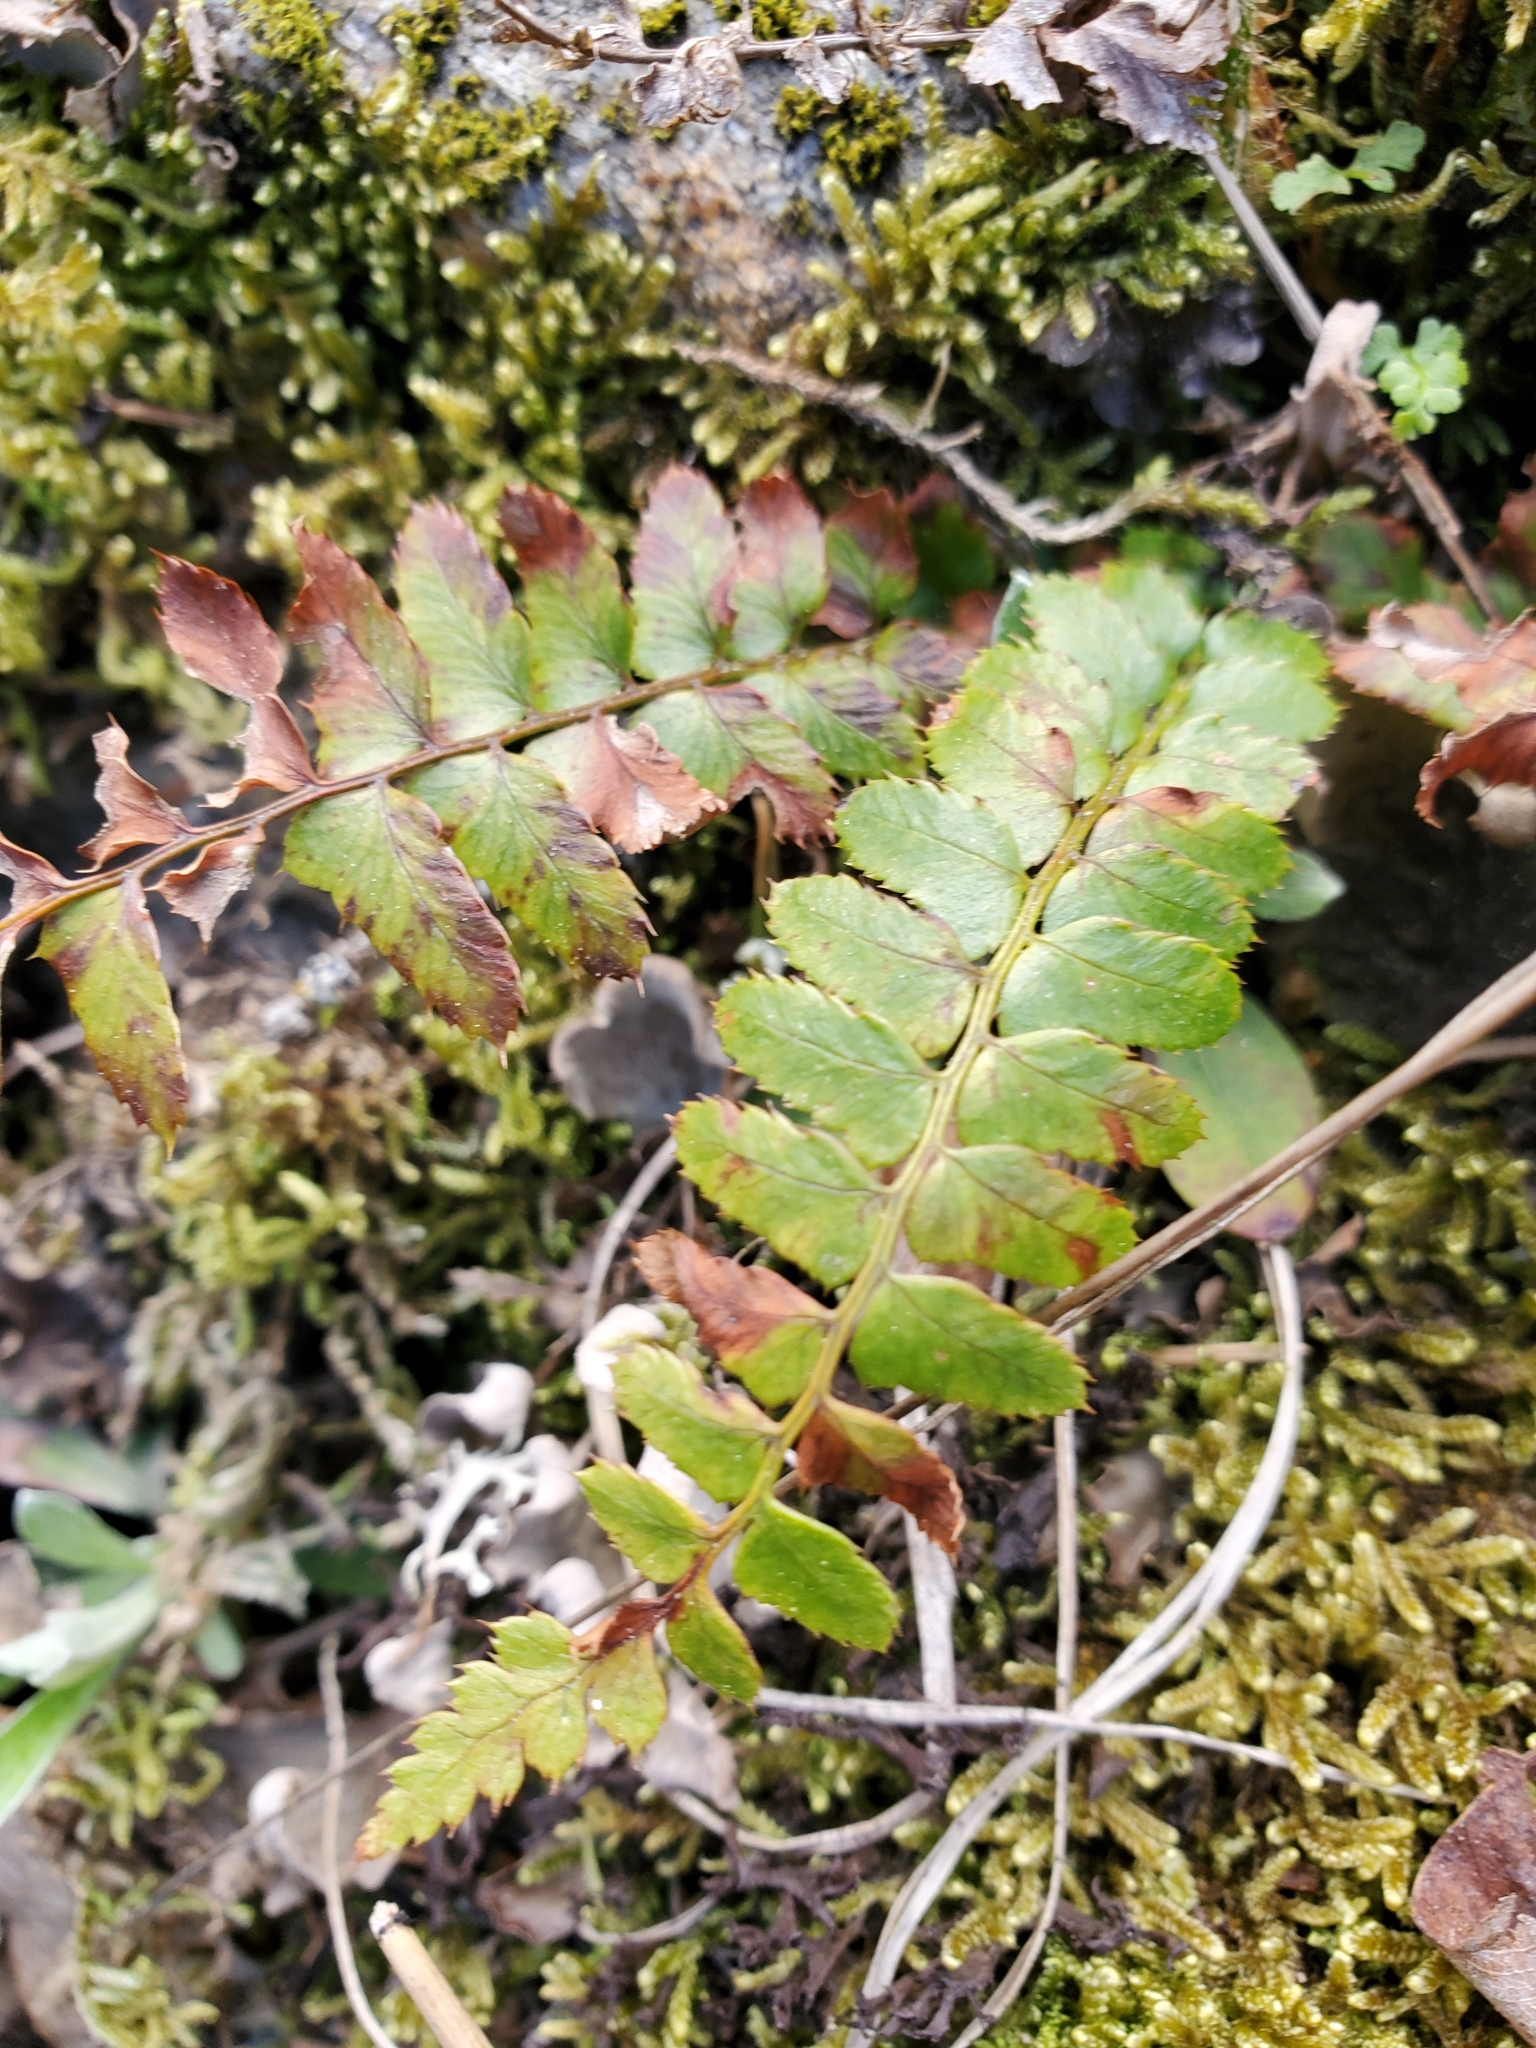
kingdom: Plantae
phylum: Tracheophyta
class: Polypodiopsida
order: Polypodiales
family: Dryopteridaceae
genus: Polystichum
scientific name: Polystichum munitum
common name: Western sword-fern
